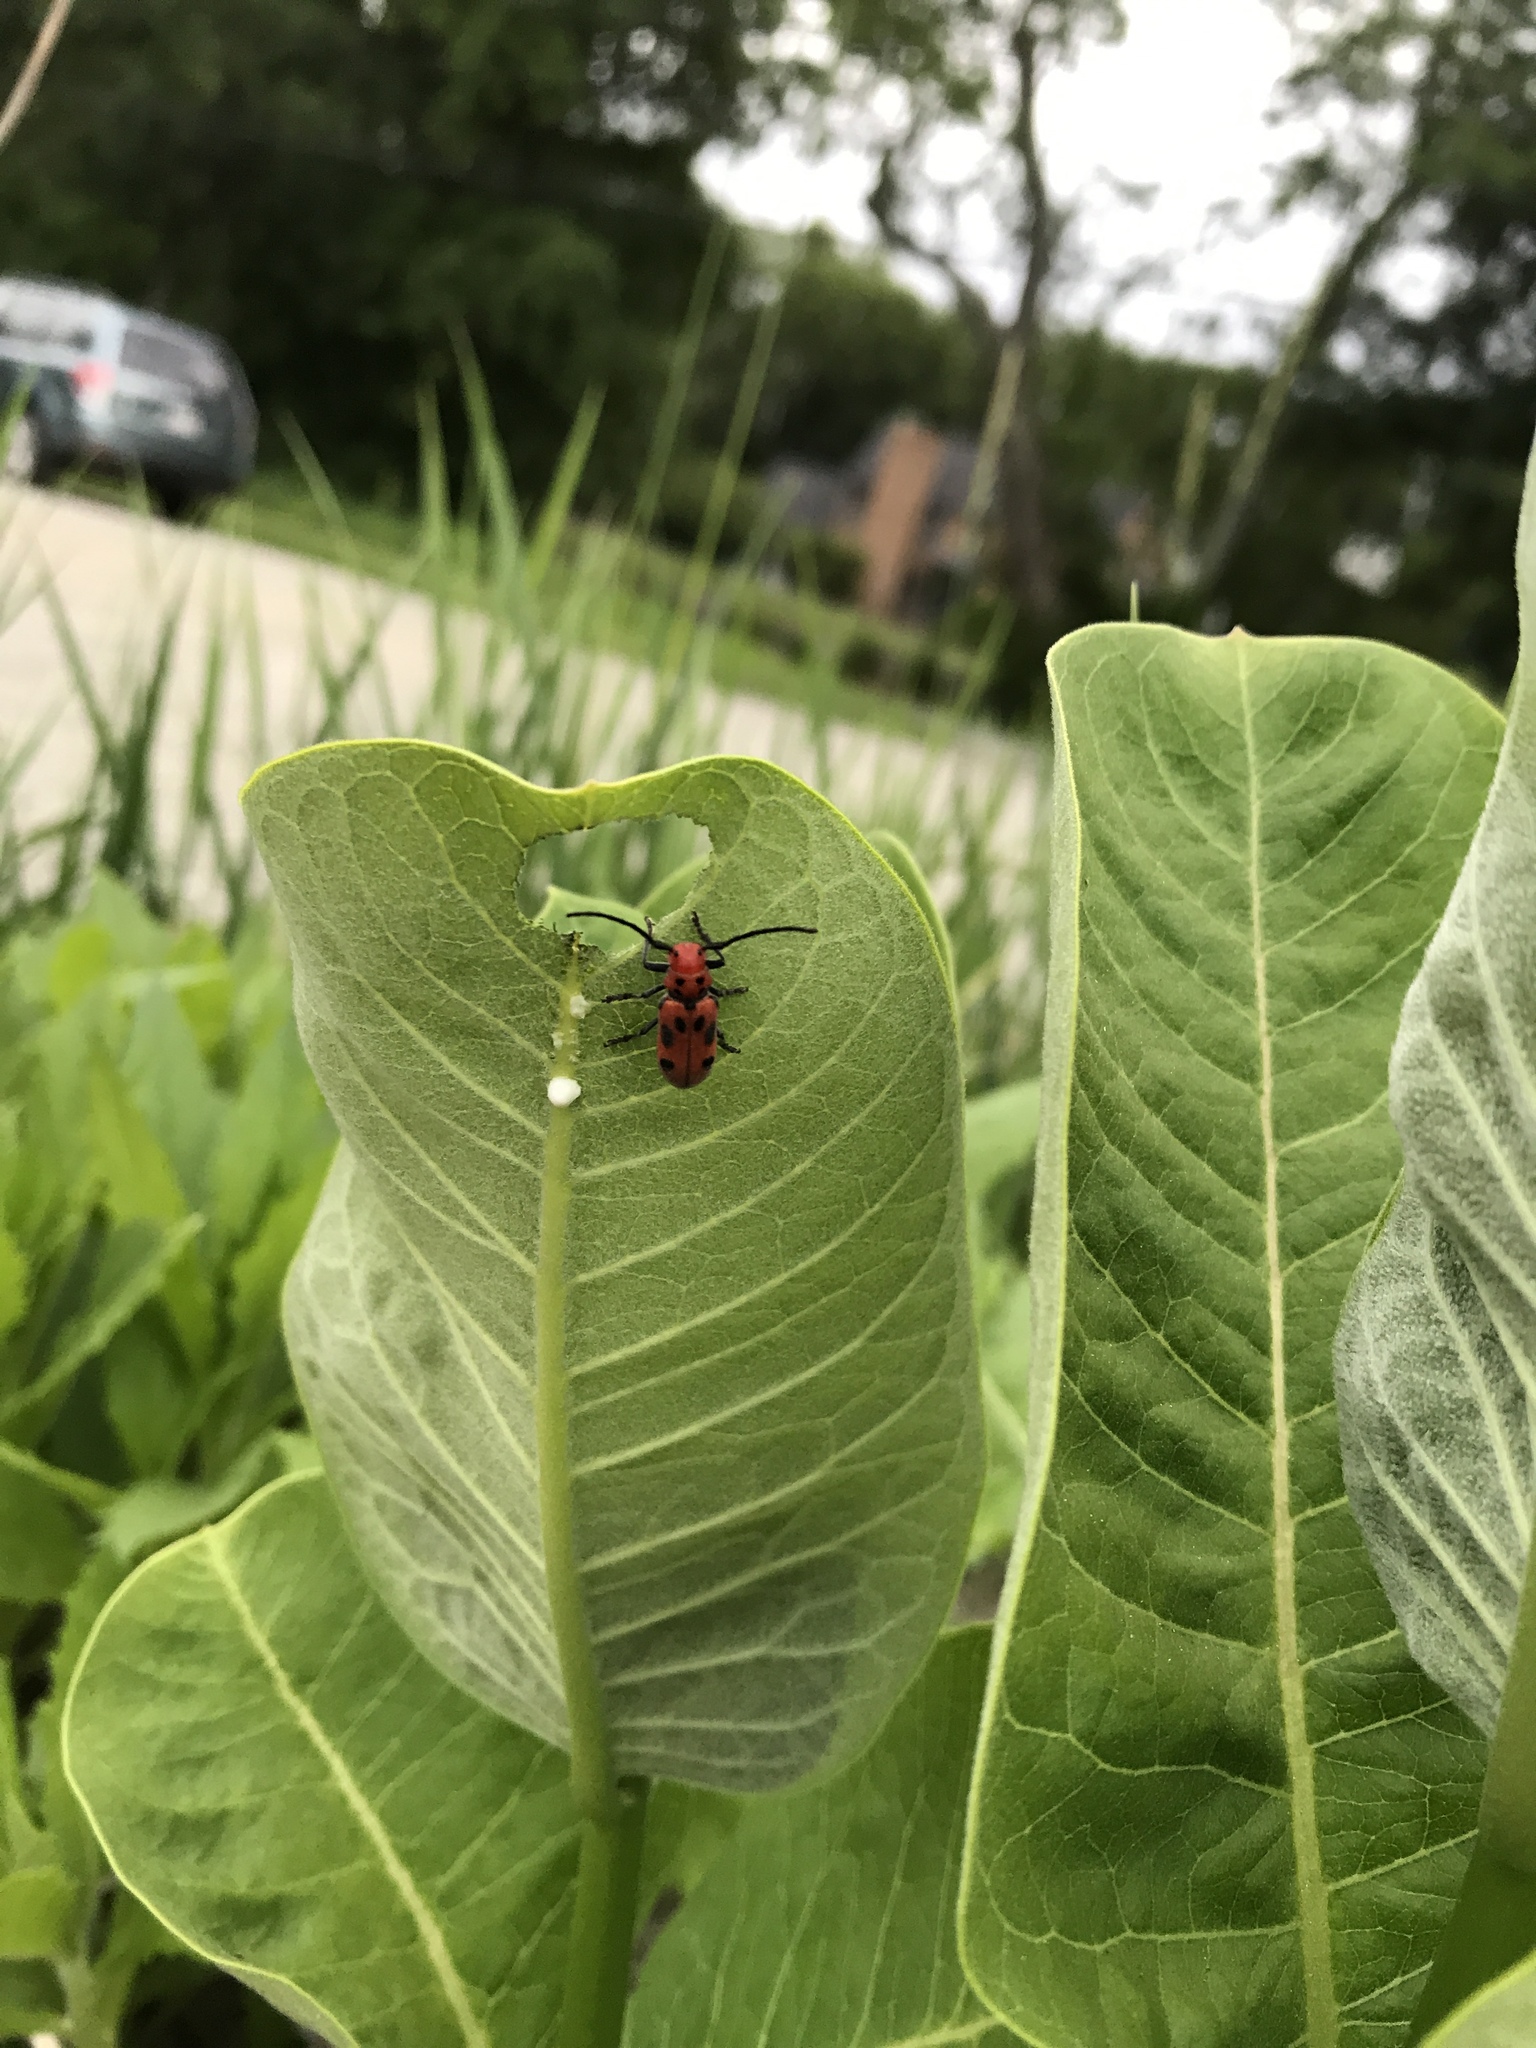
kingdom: Animalia
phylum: Arthropoda
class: Insecta
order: Coleoptera
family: Cerambycidae
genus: Tetraopes
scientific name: Tetraopes tetrophthalmus
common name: Red milkweed beetle
